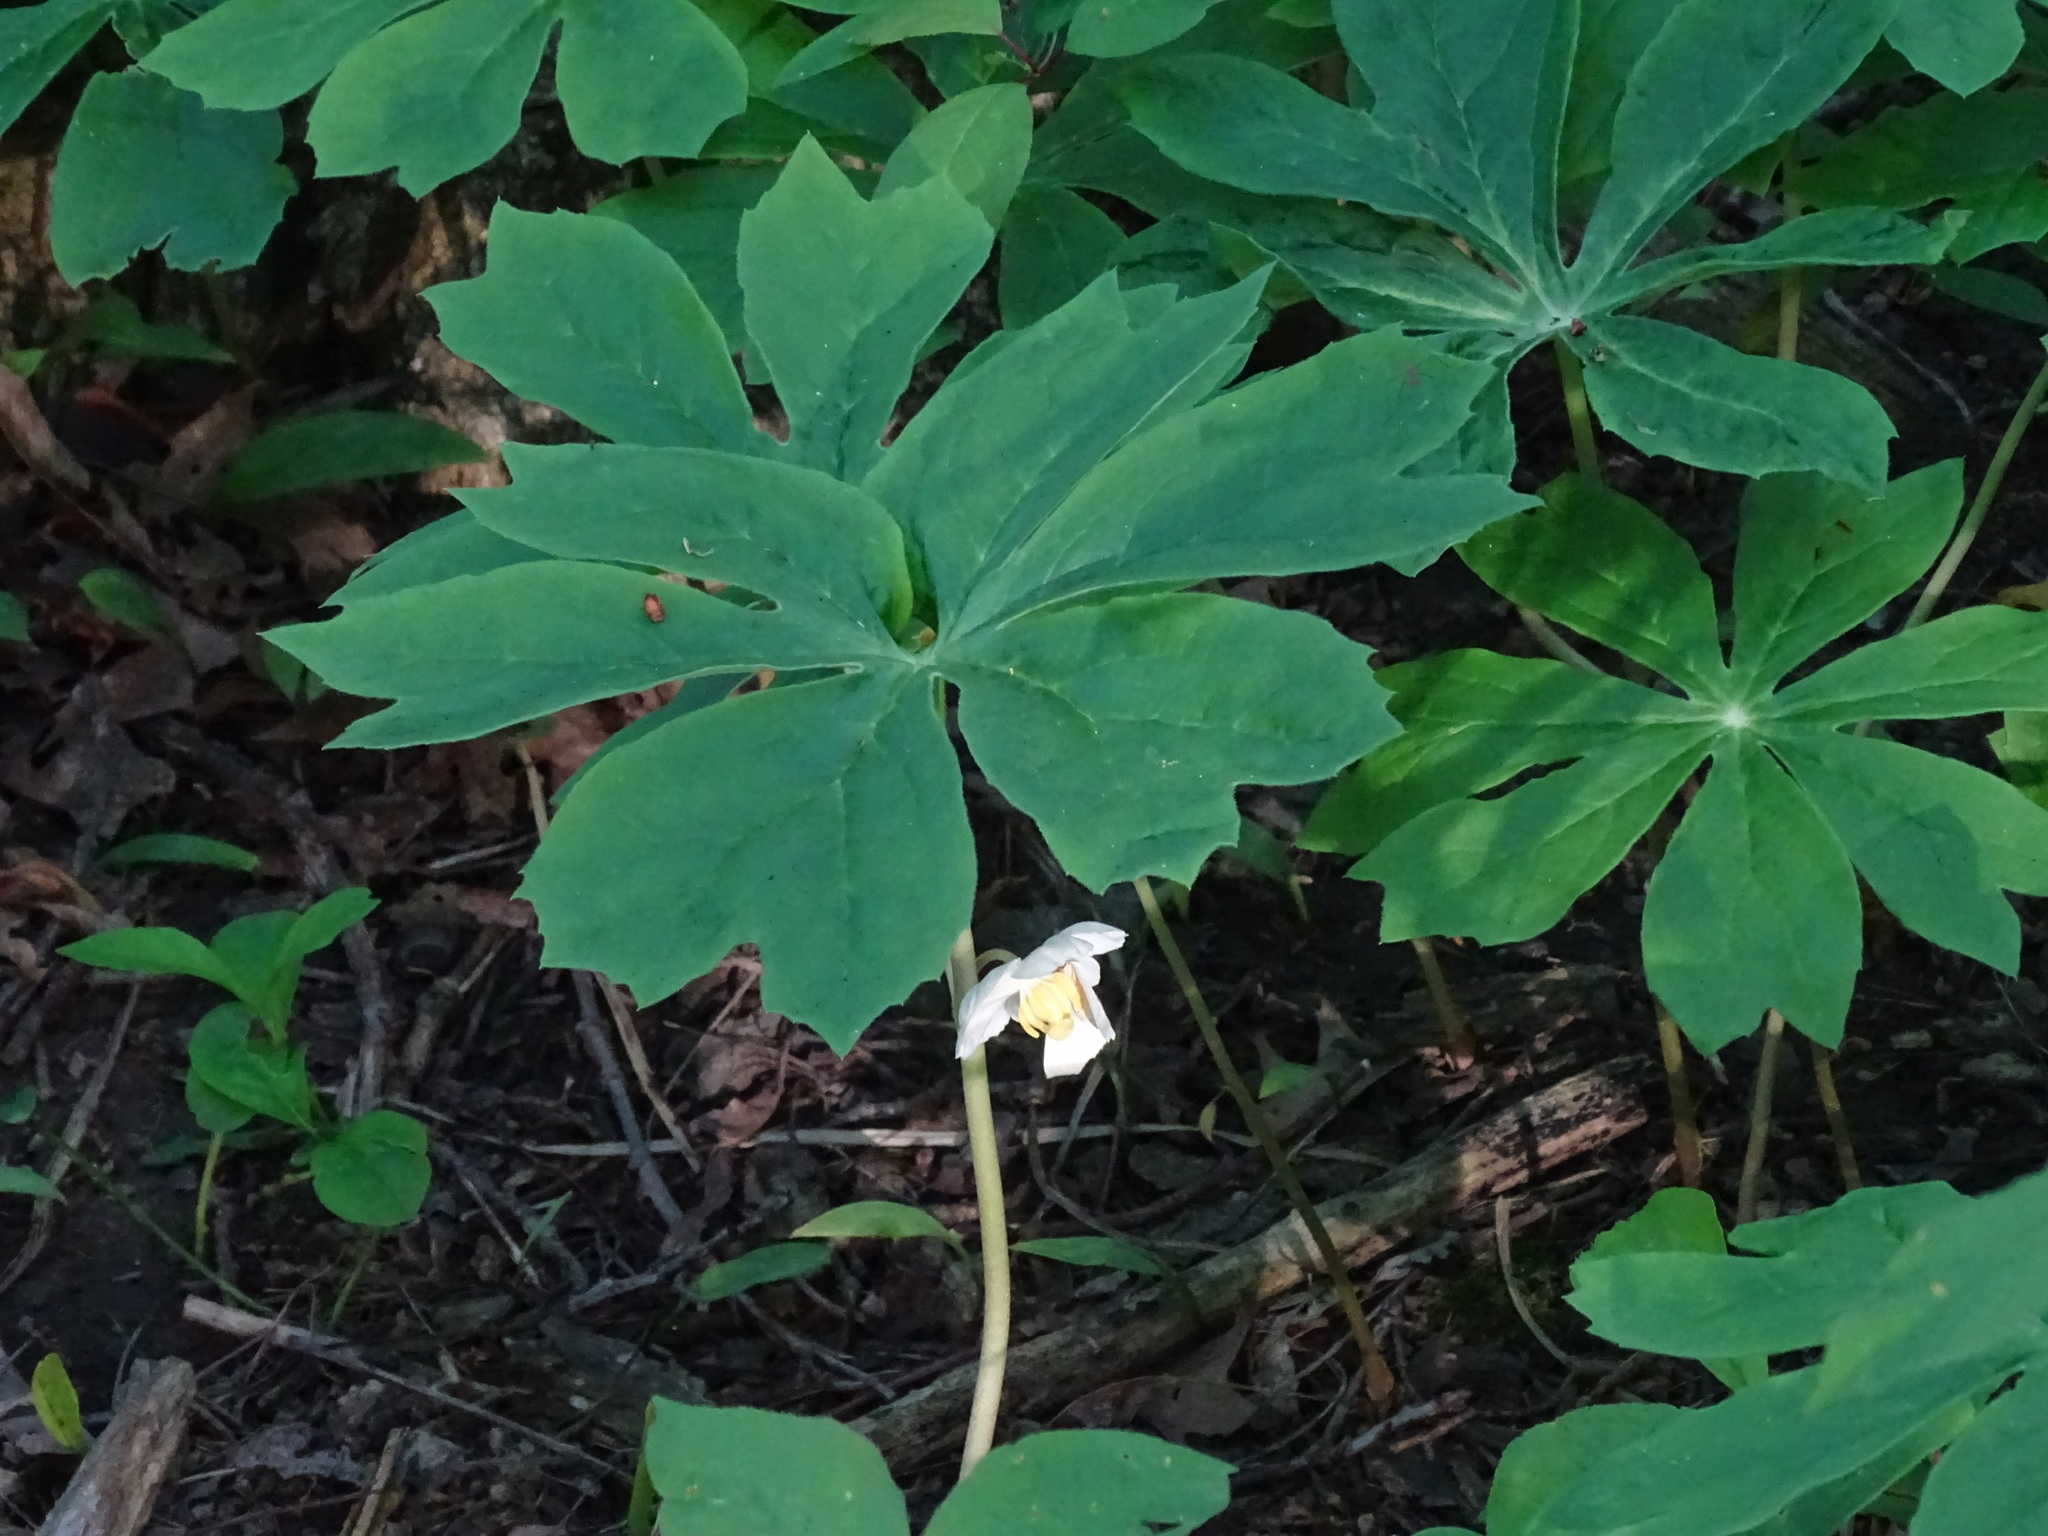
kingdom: Plantae
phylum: Tracheophyta
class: Magnoliopsida
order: Ranunculales
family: Berberidaceae
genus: Podophyllum
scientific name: Podophyllum peltatum
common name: Wild mandrake
